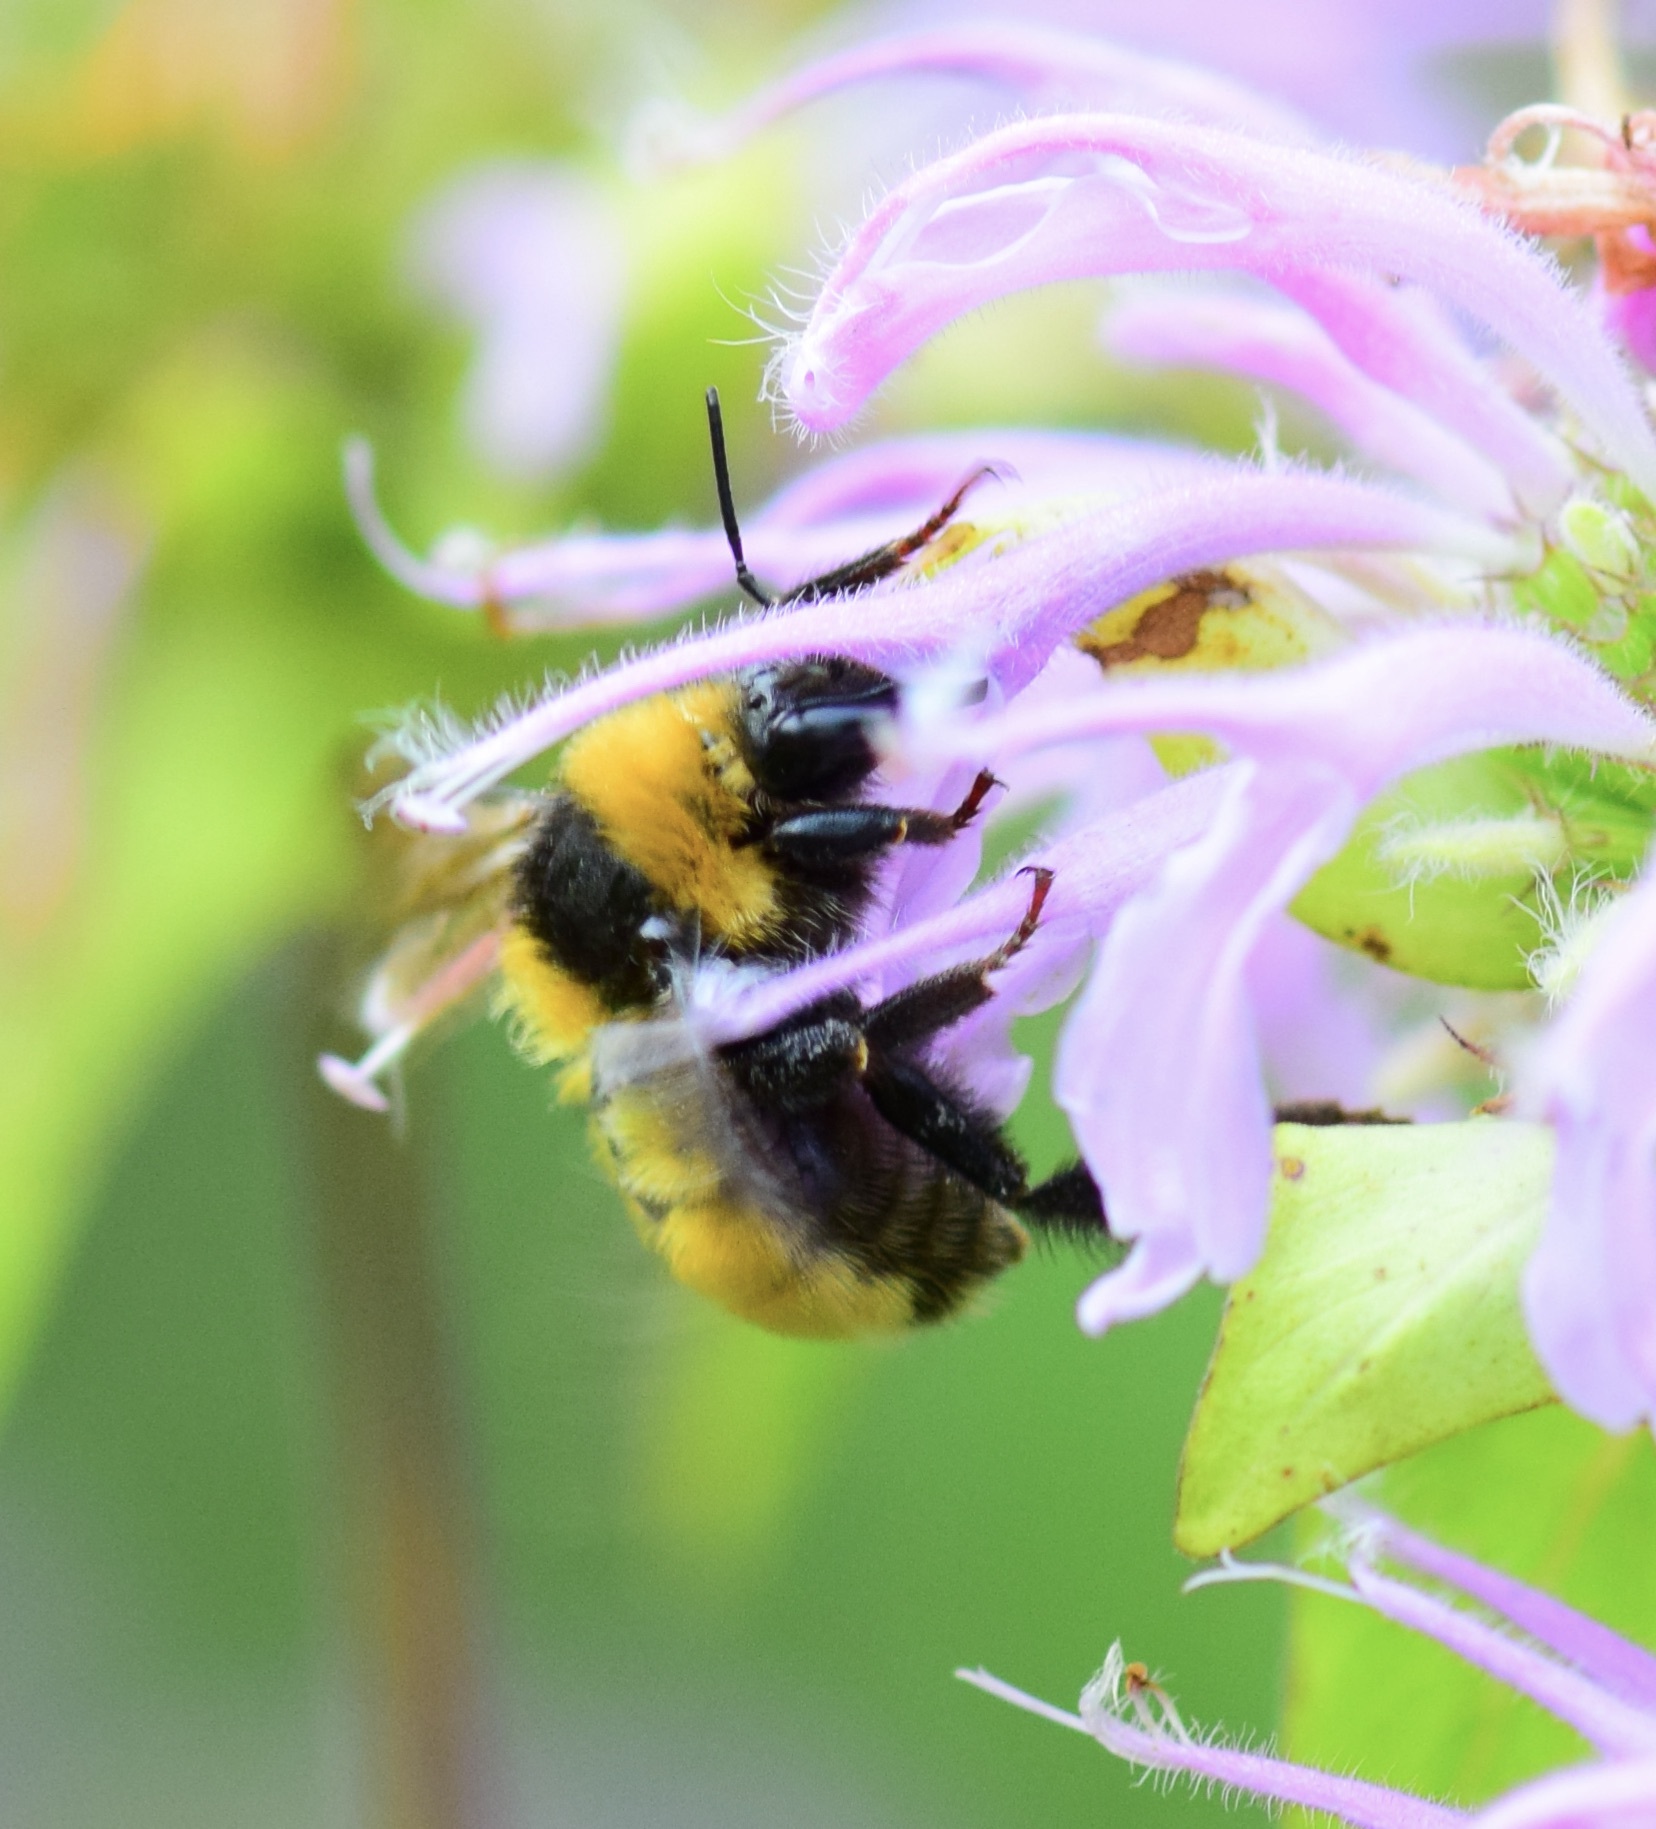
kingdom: Animalia
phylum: Arthropoda
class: Insecta
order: Hymenoptera
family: Apidae
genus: Bombus
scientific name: Bombus borealis
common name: Northern amber bumble bee
